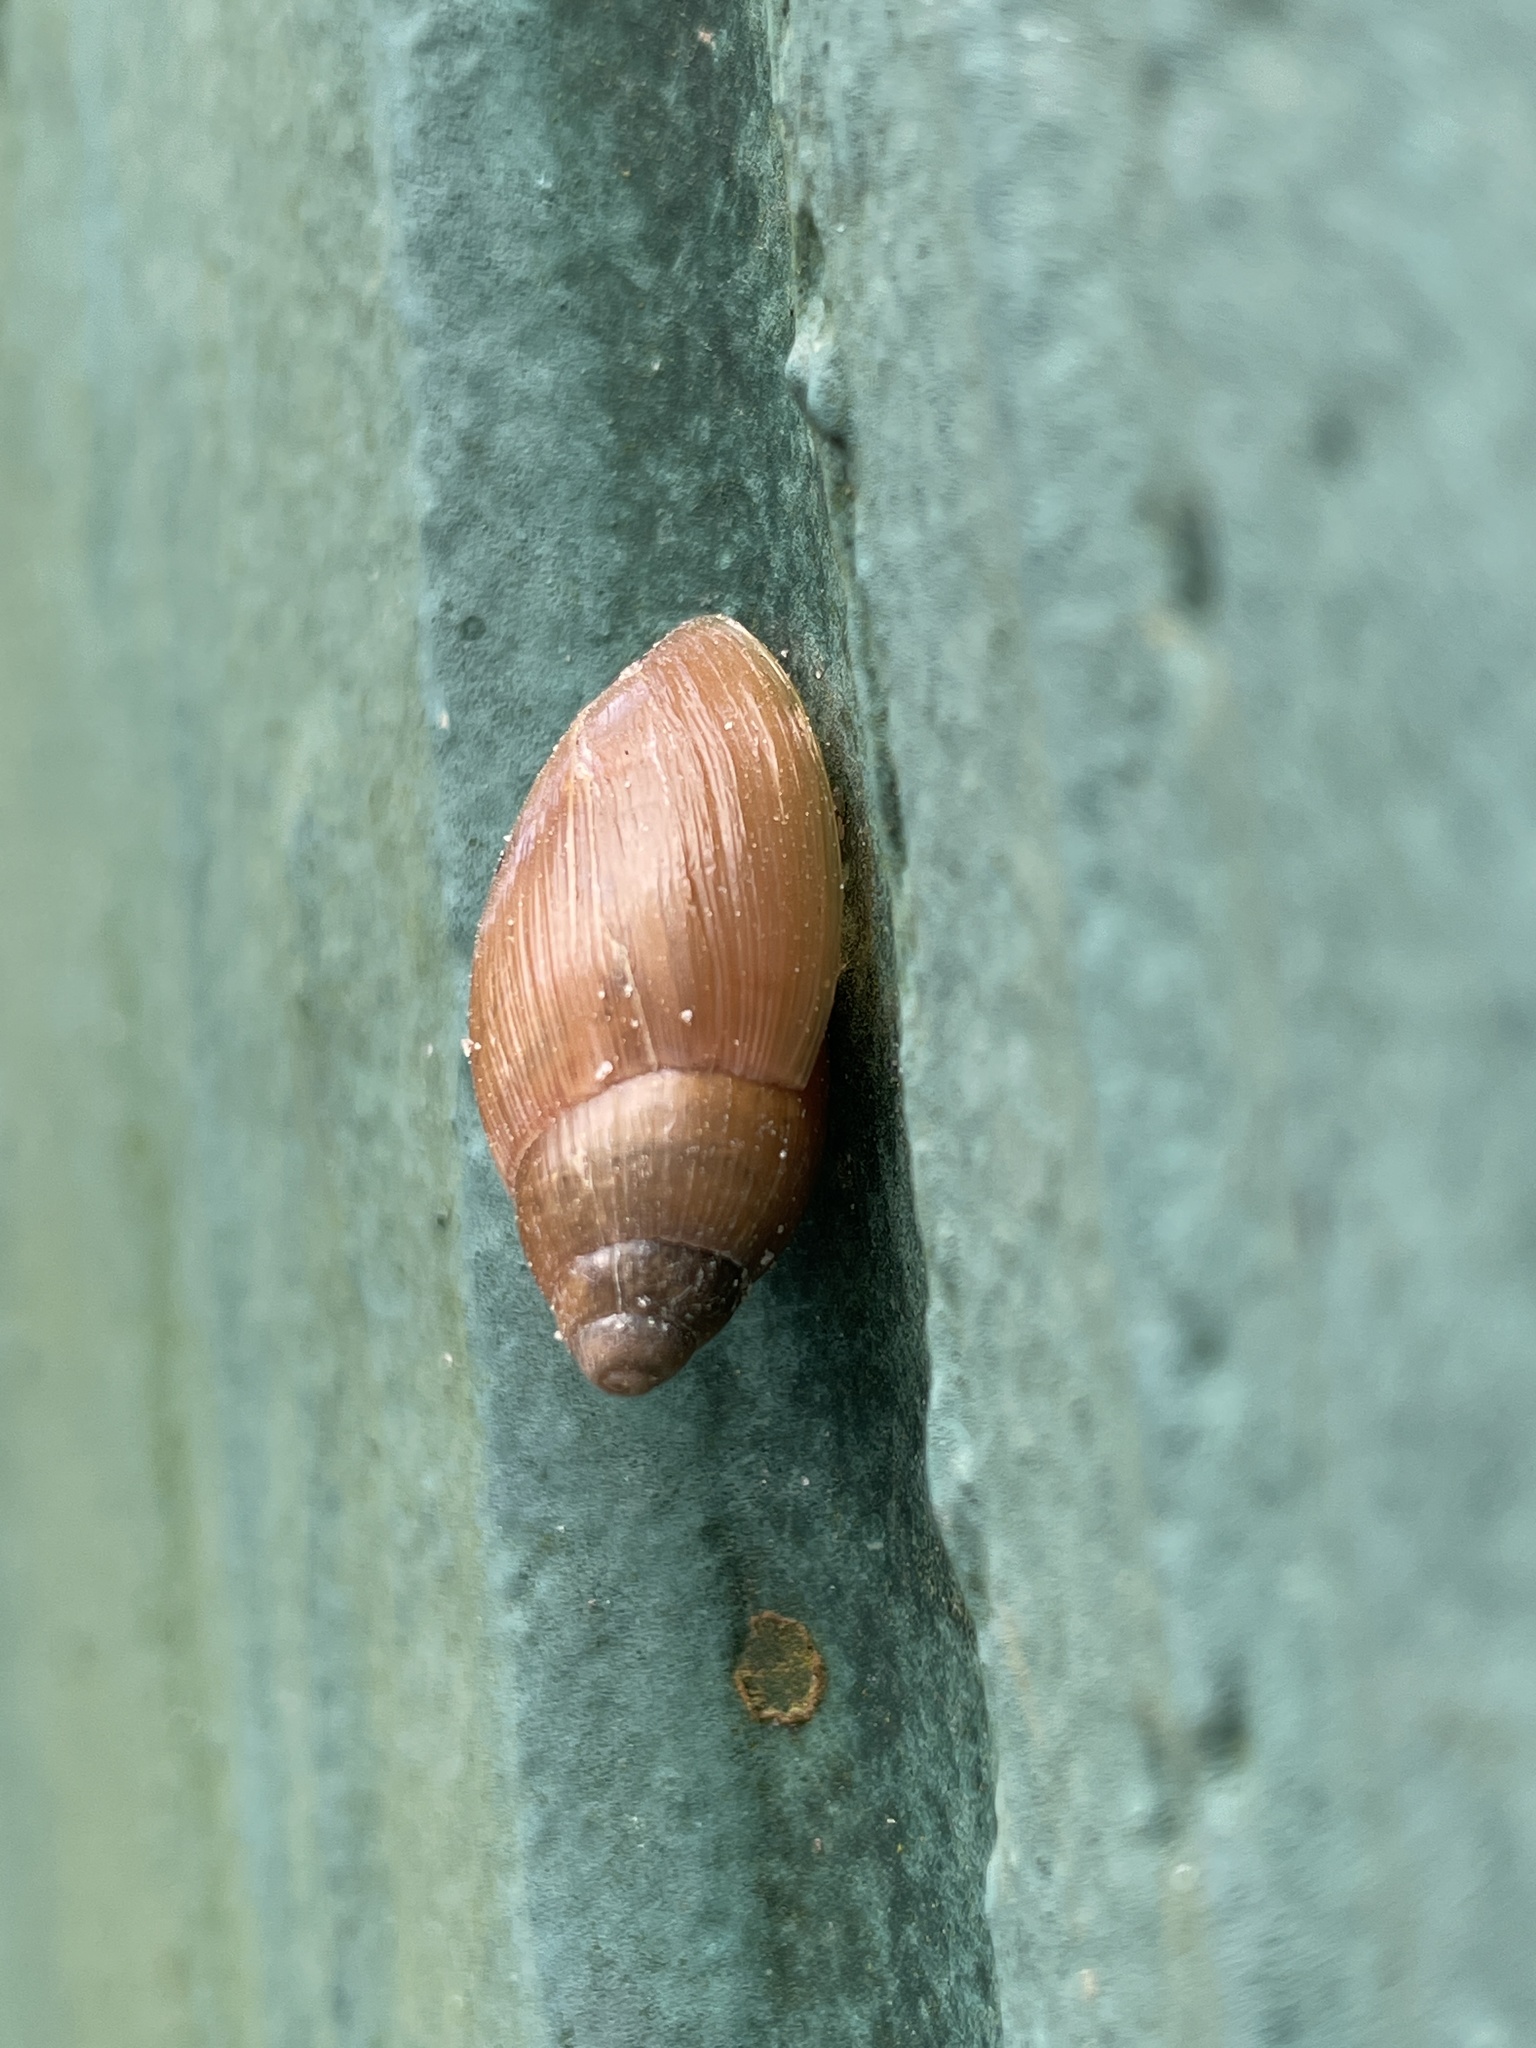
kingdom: Animalia
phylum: Mollusca
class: Gastropoda
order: Stylommatophora
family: Spiraxidae
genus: Euglandina
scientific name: Euglandina rosea
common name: Rosy wolfsnail
